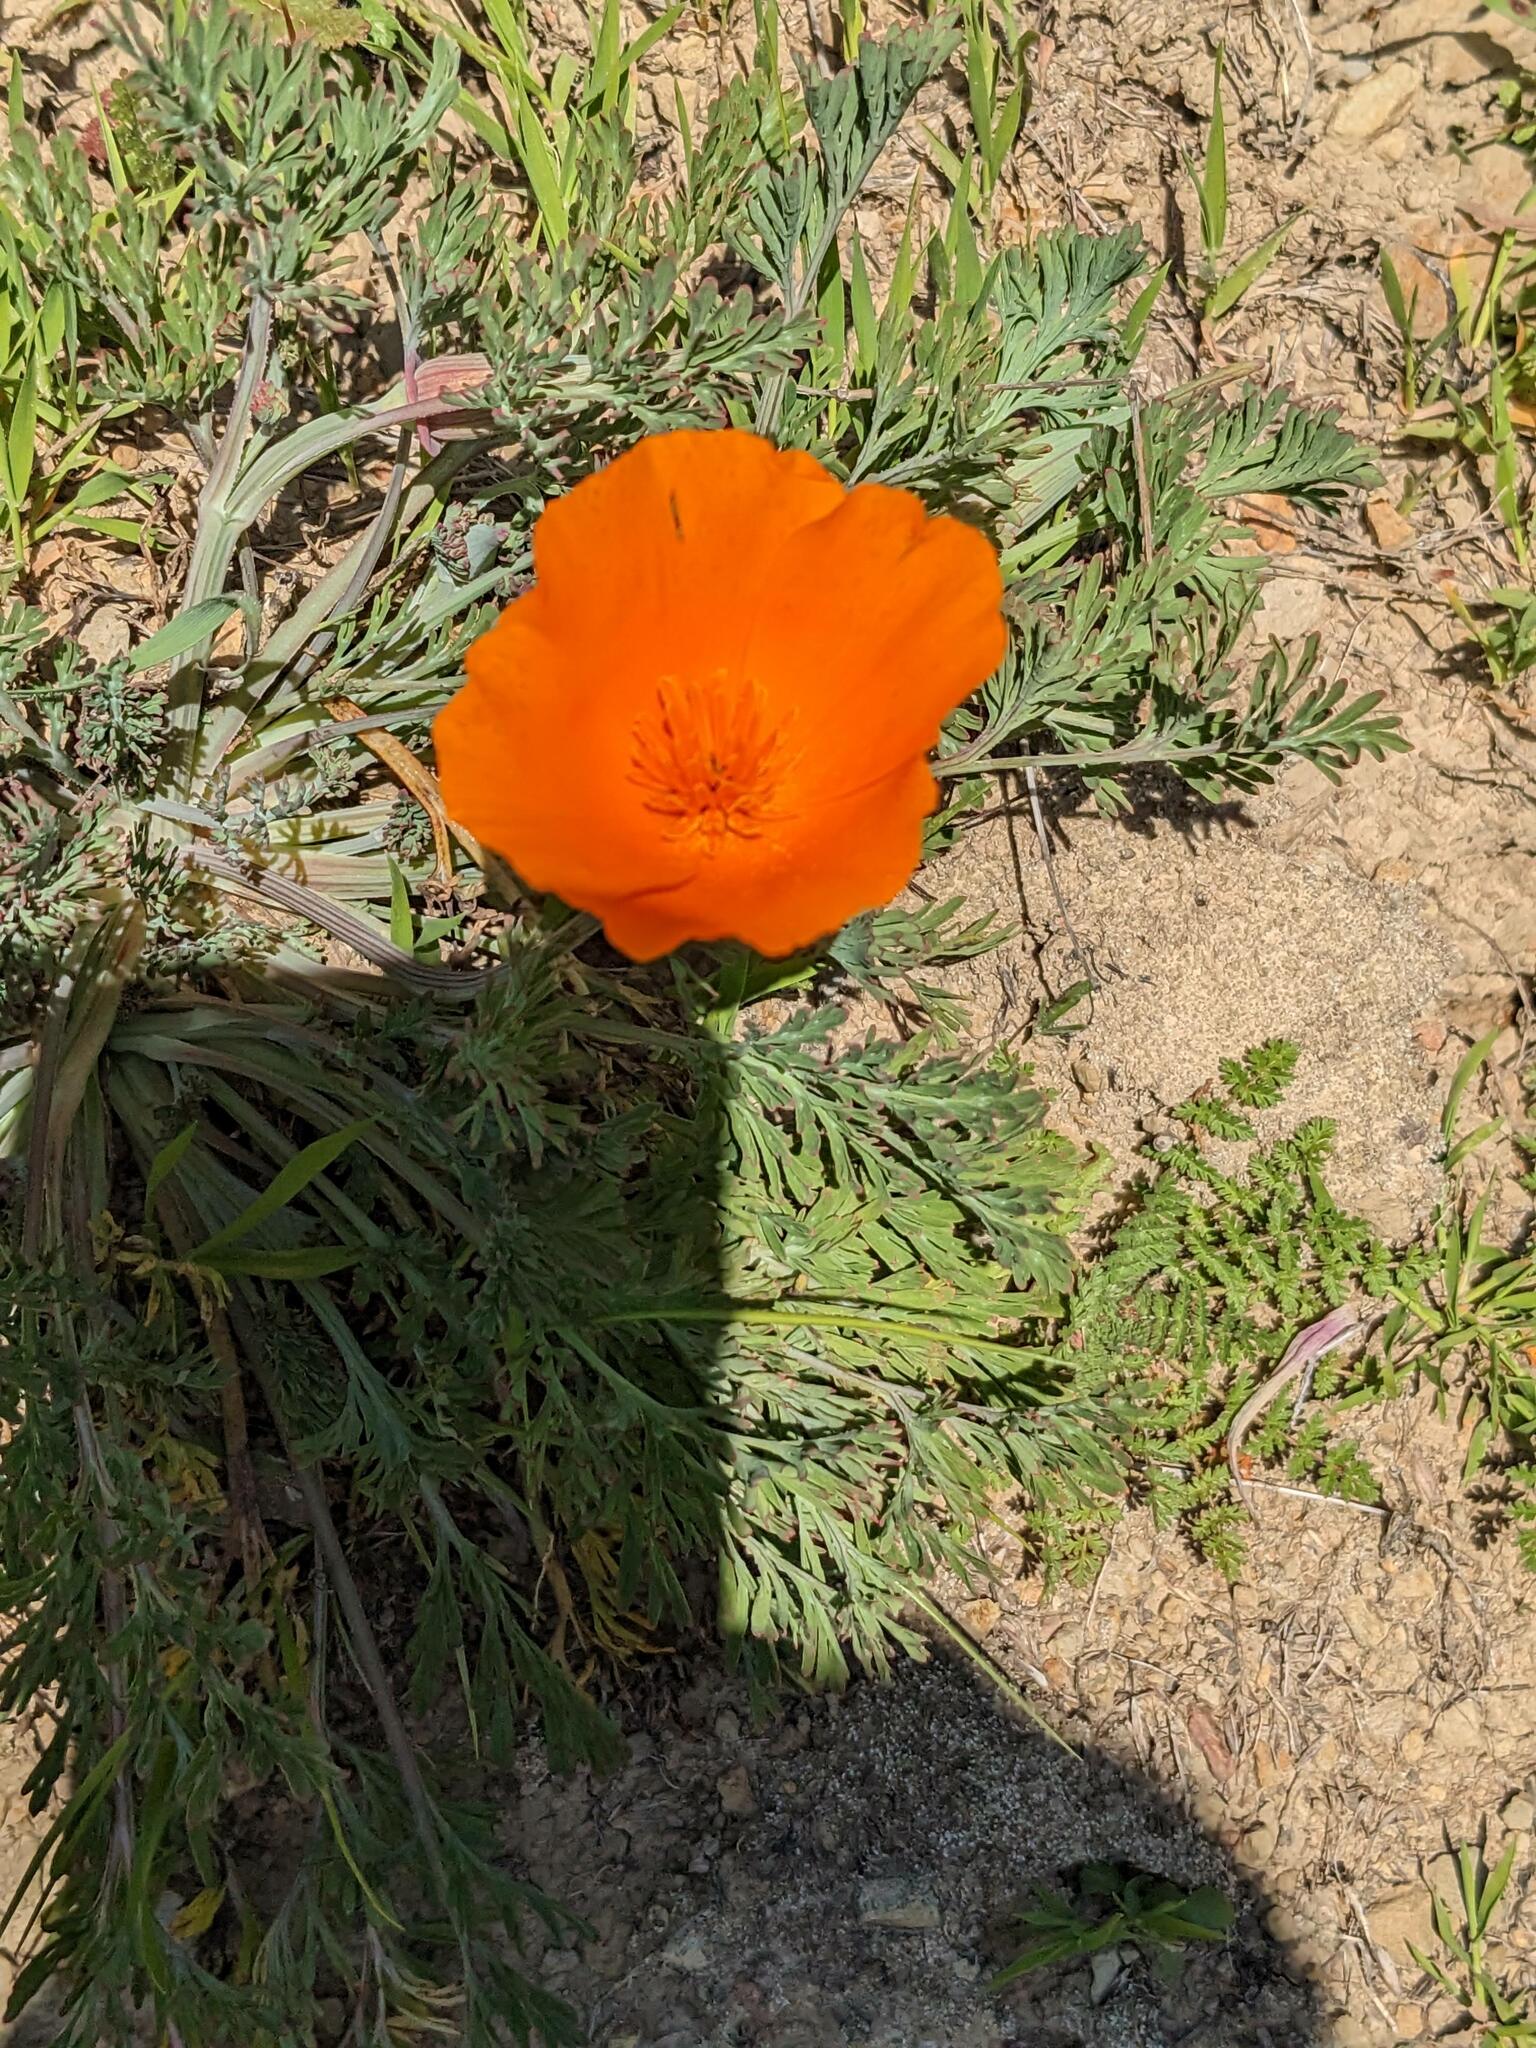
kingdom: Plantae
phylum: Tracheophyta
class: Magnoliopsida
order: Ranunculales
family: Papaveraceae
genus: Eschscholzia
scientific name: Eschscholzia californica
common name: California poppy
